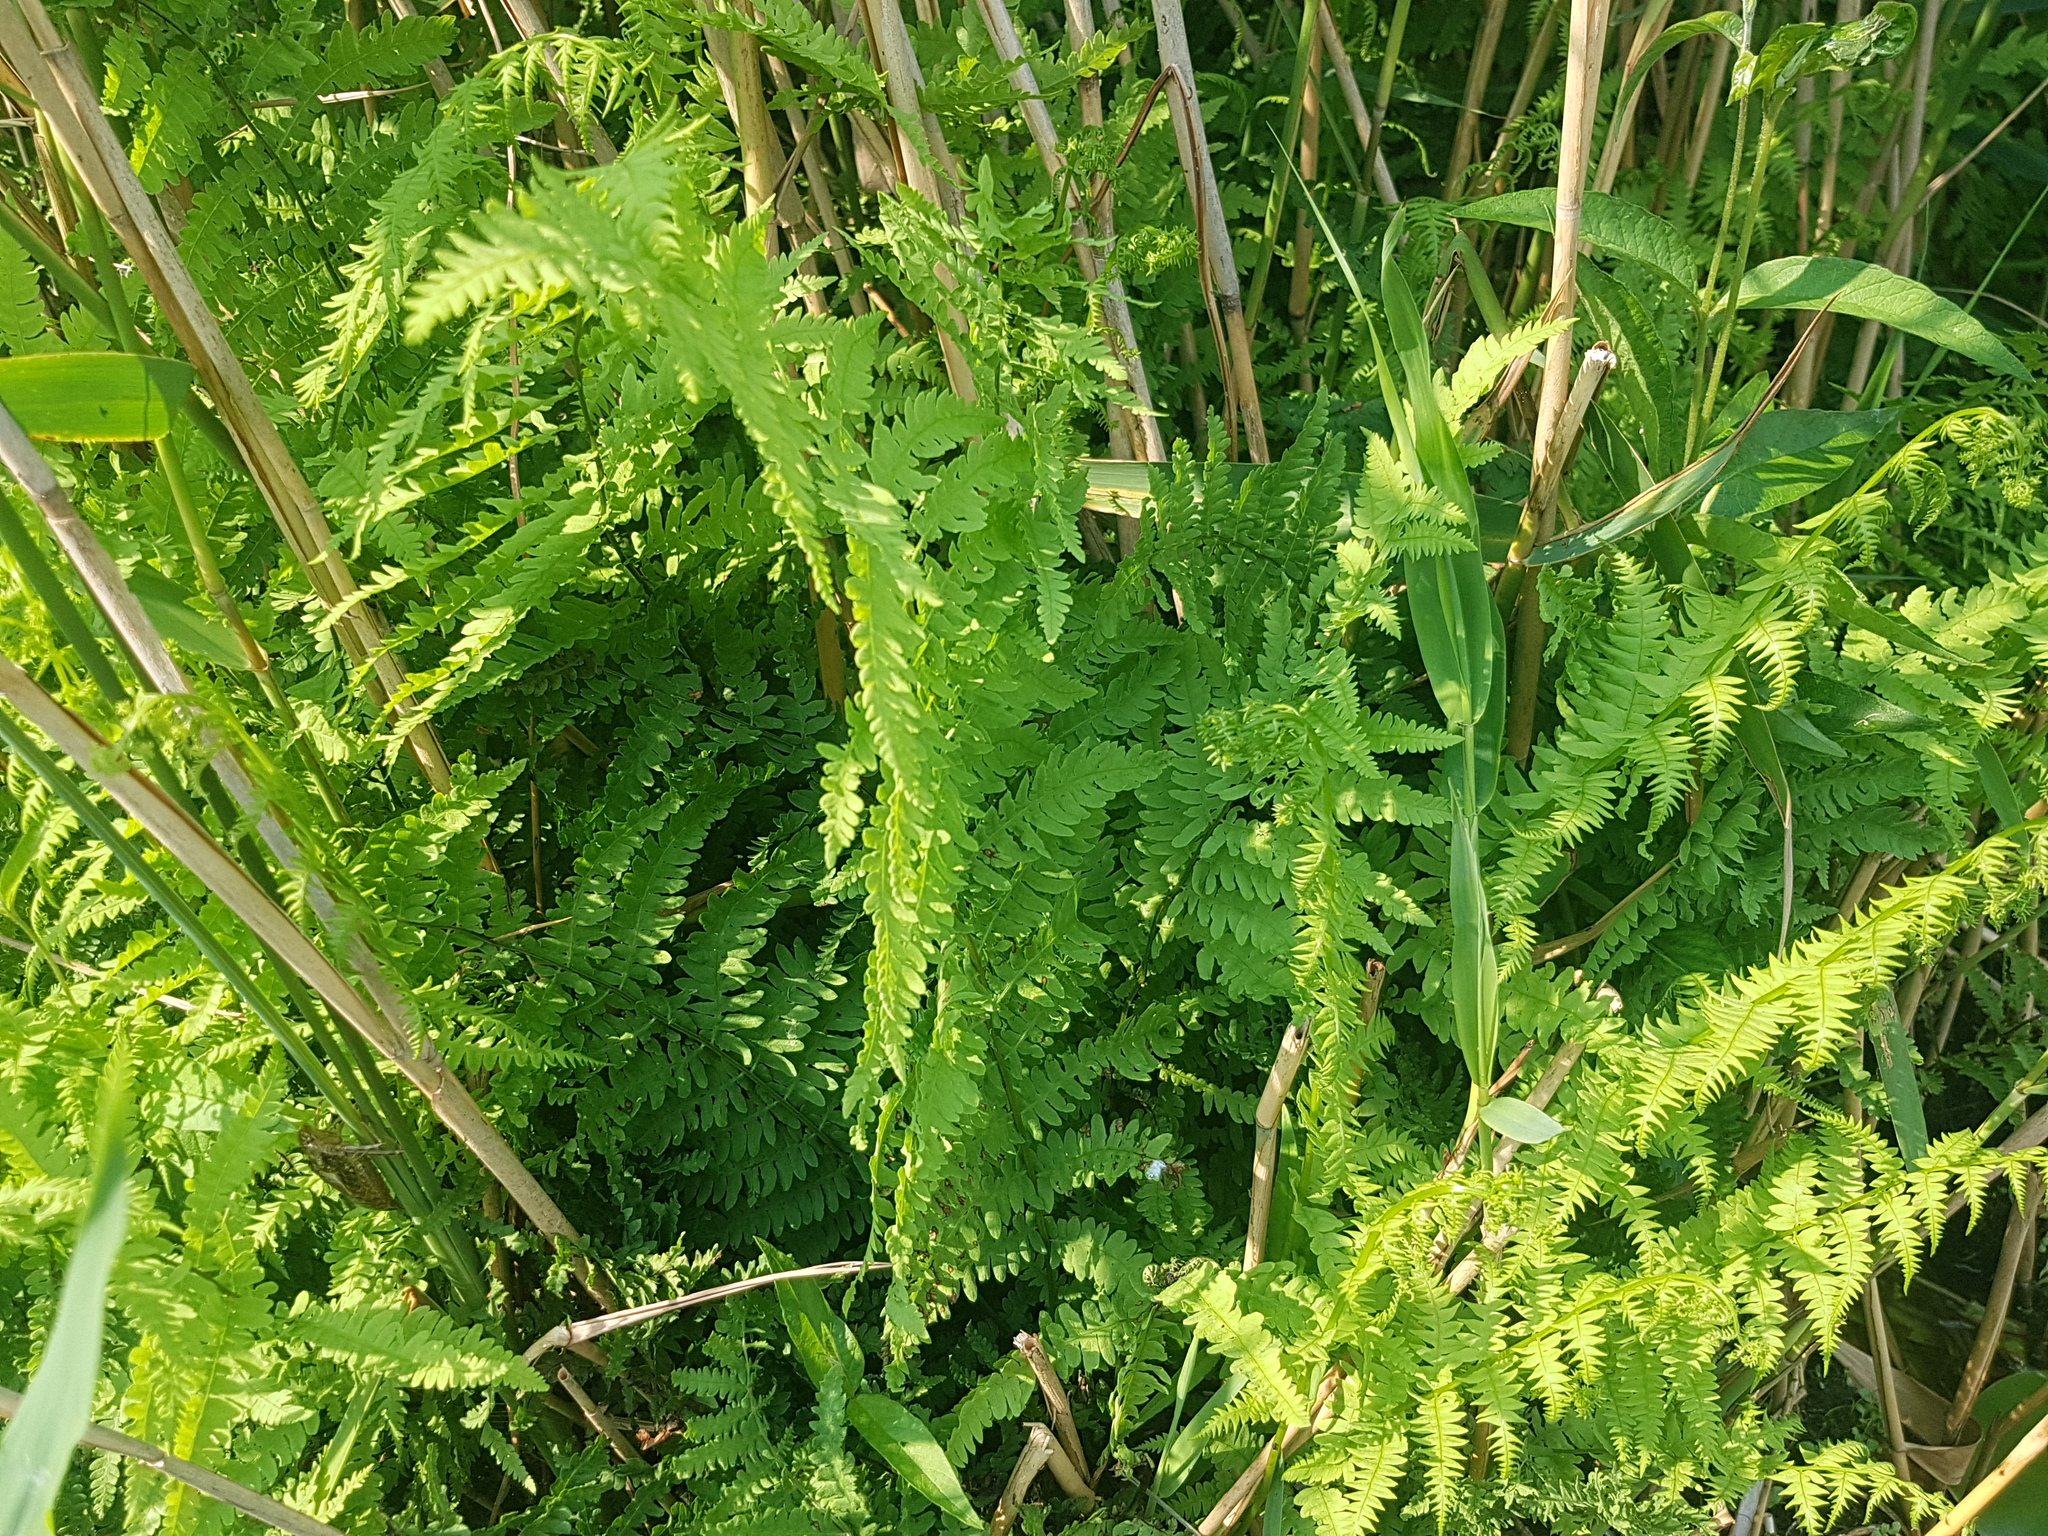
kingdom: Plantae
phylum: Tracheophyta
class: Polypodiopsida
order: Polypodiales
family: Thelypteridaceae
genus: Thelypteris
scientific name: Thelypteris palustris
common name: Marsh fern
